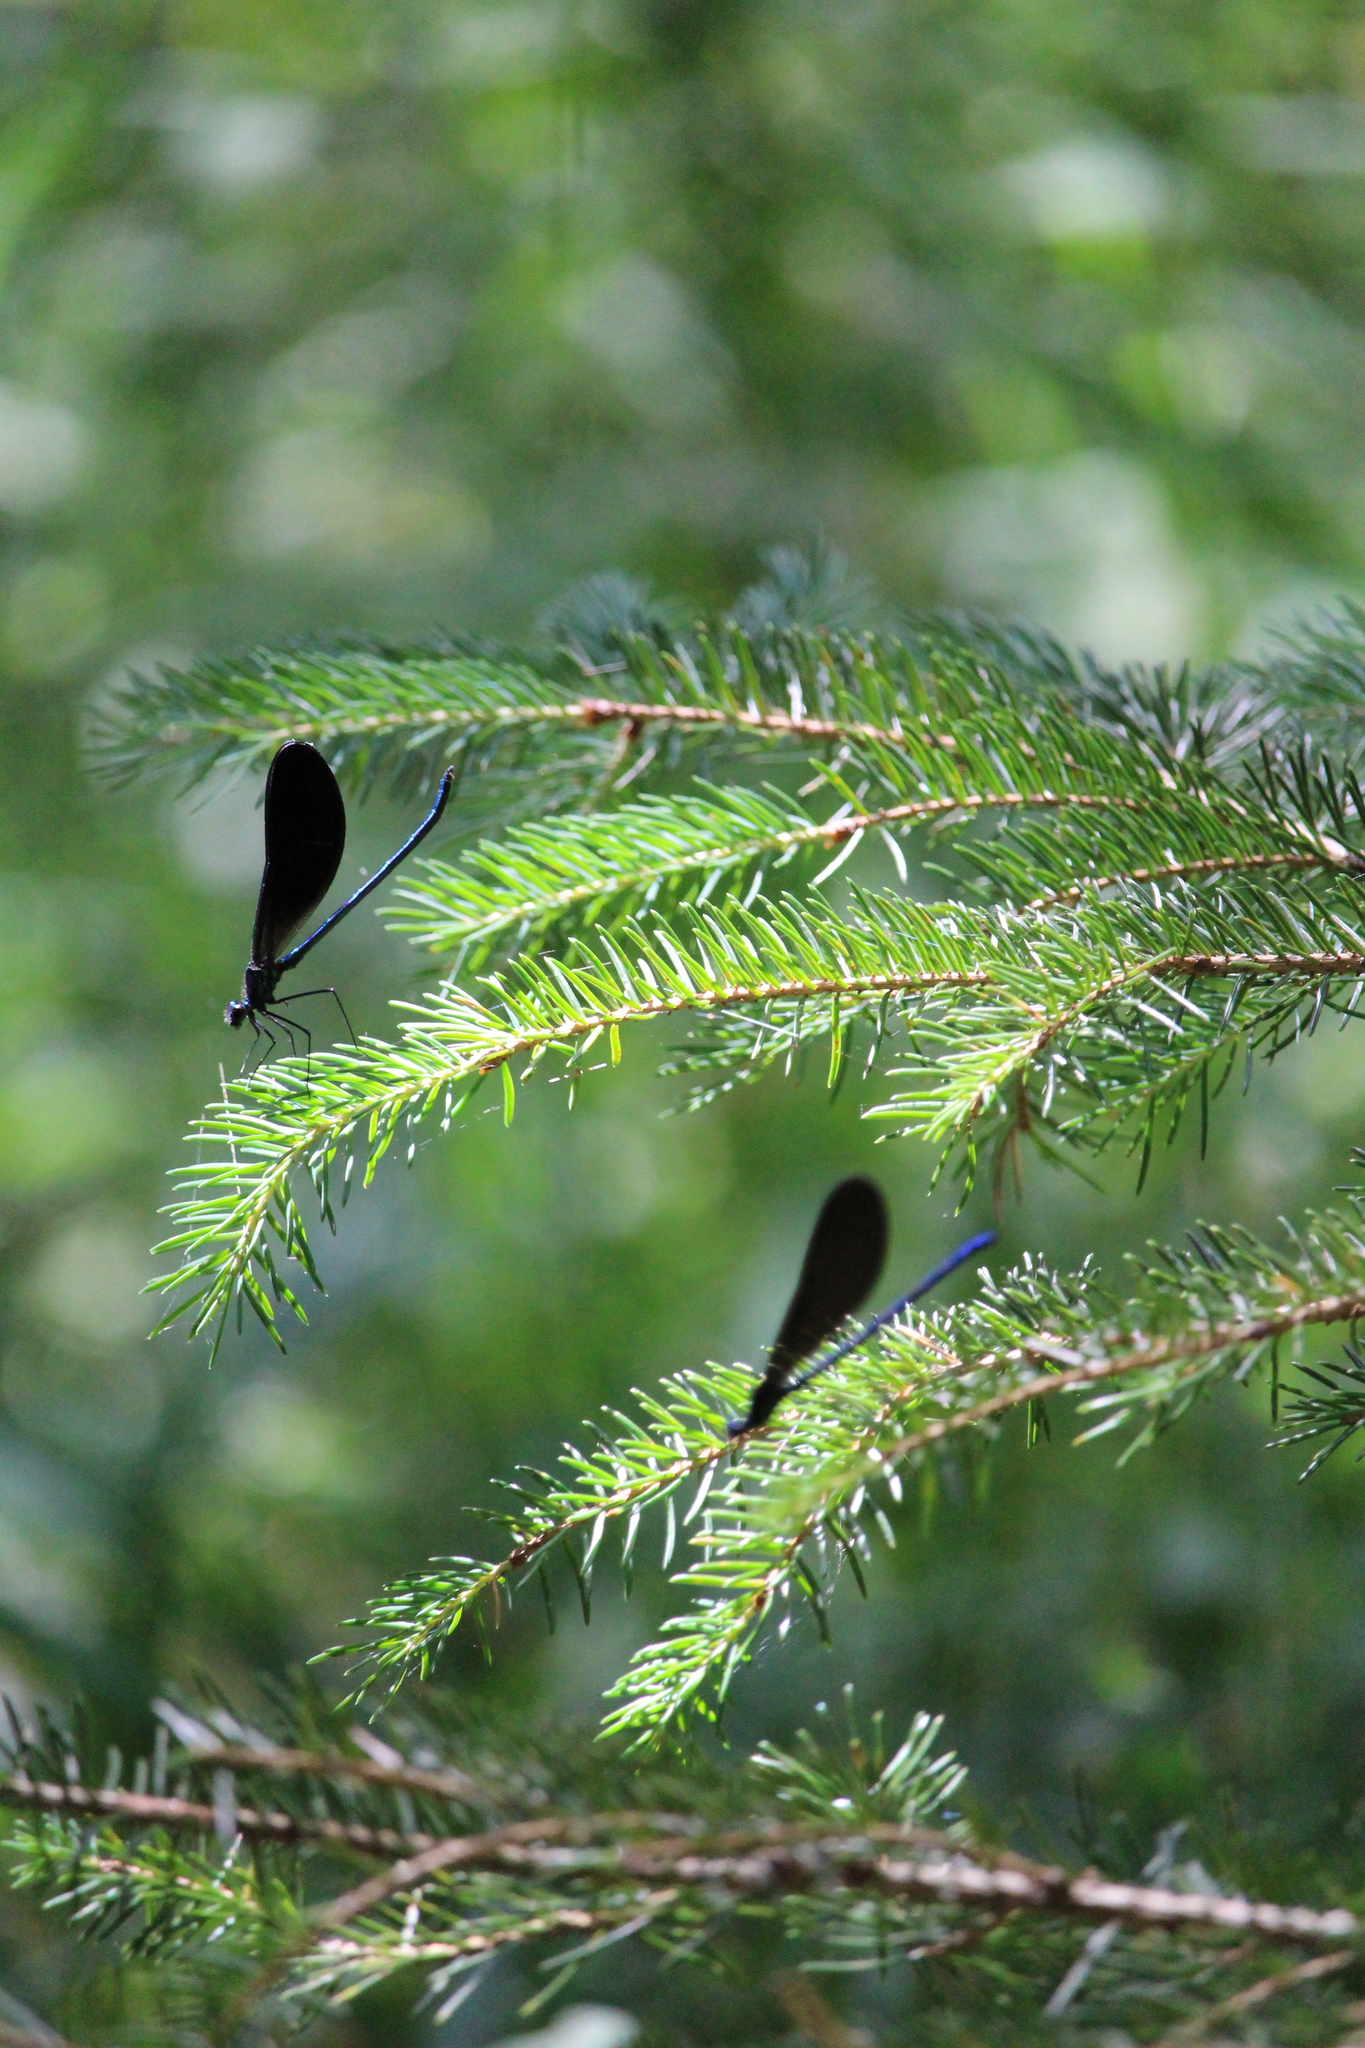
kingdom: Animalia
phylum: Arthropoda
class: Insecta
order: Odonata
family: Calopterygidae
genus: Calopteryx
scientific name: Calopteryx maculata
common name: Ebony jewelwing
